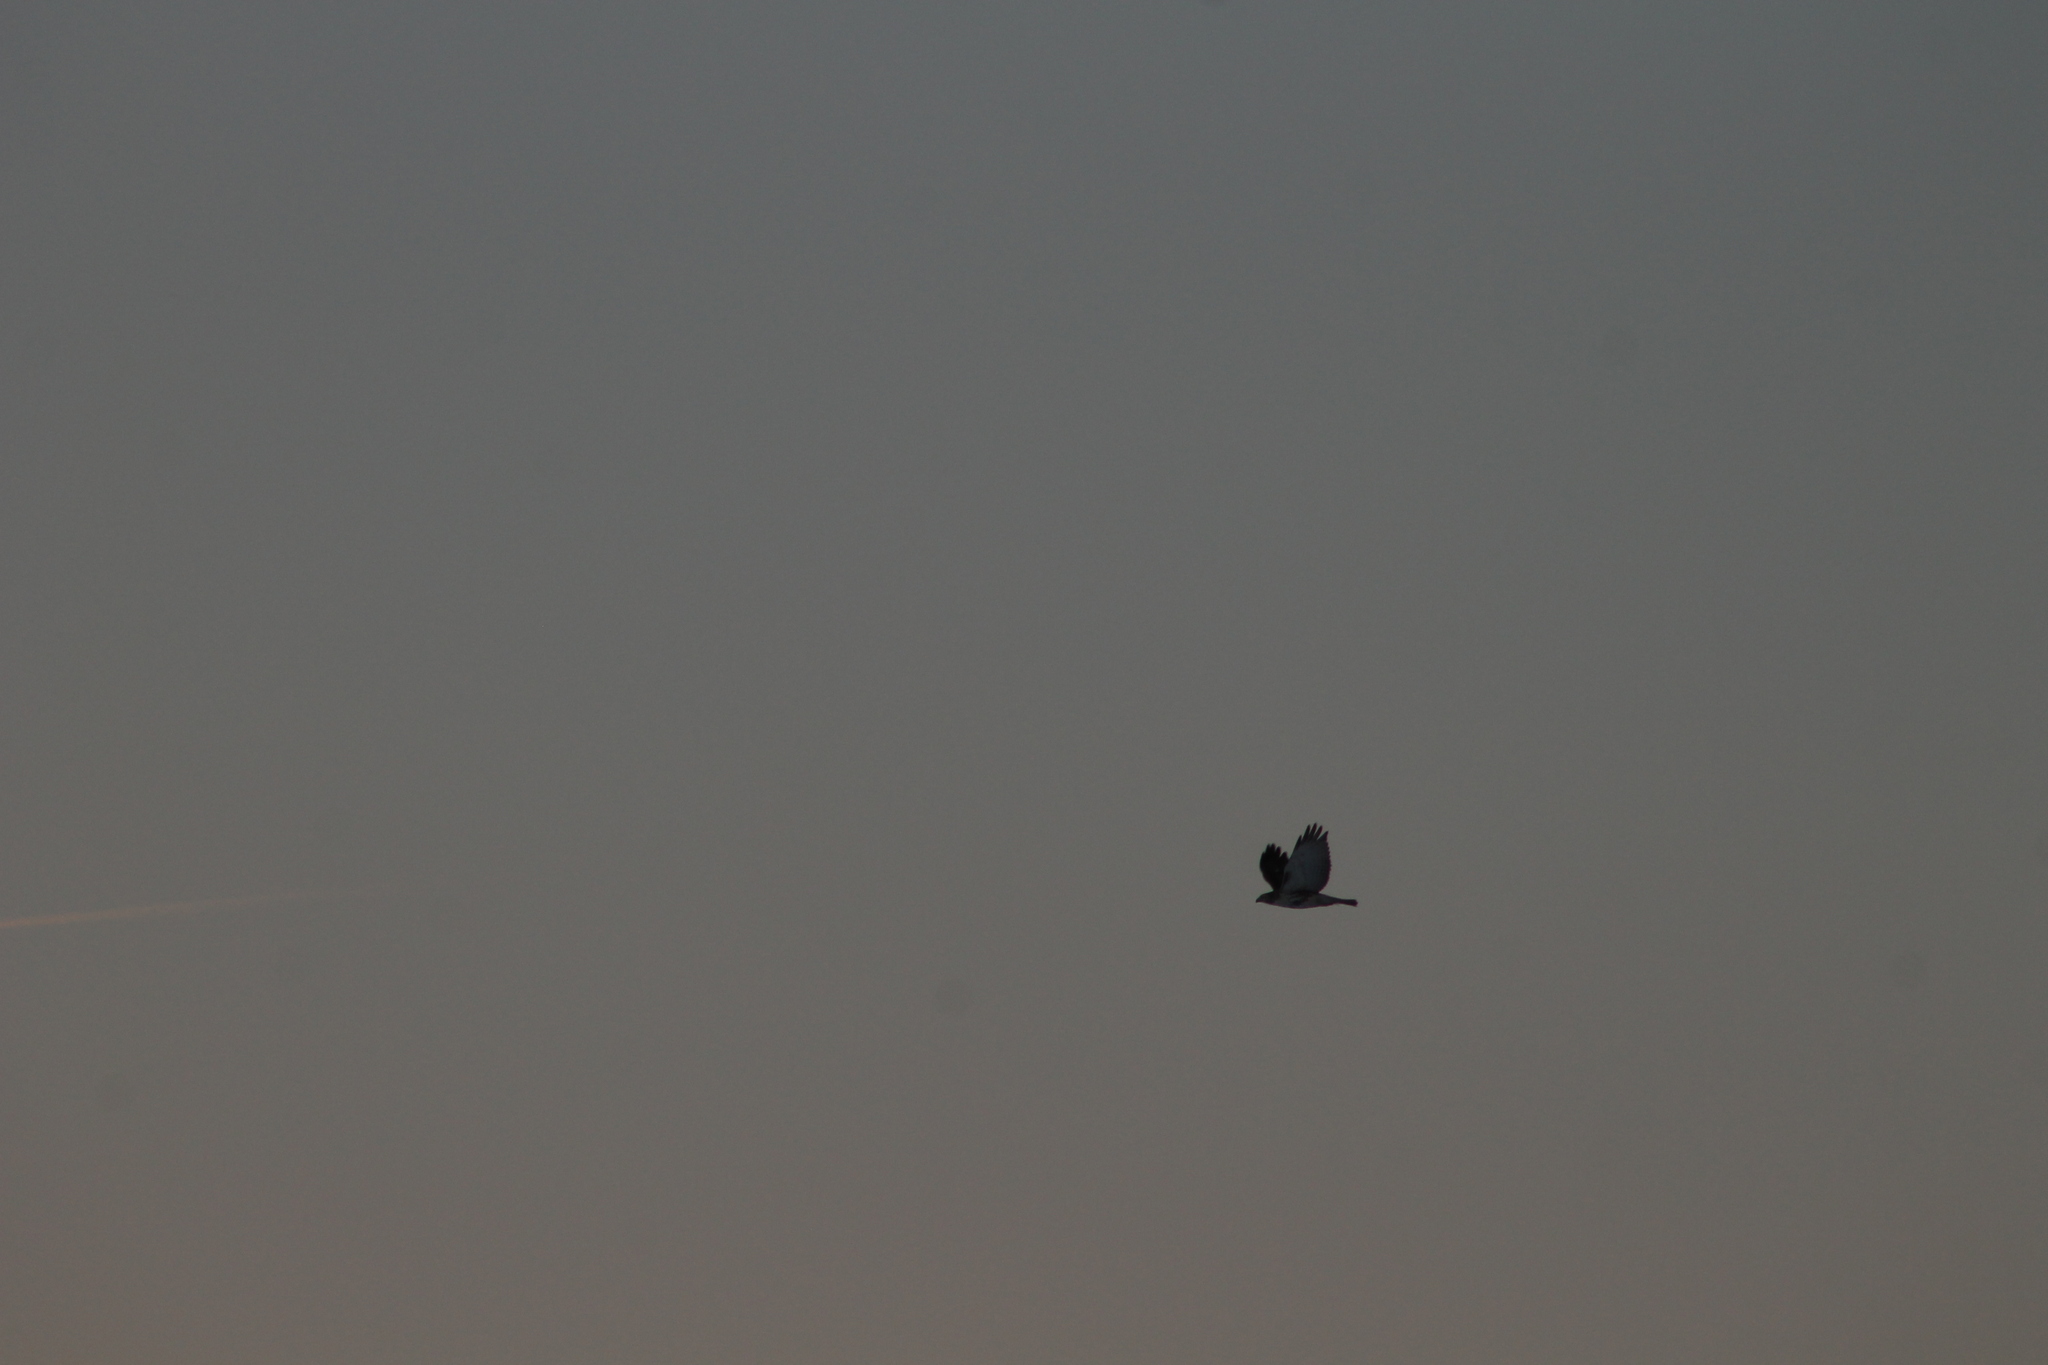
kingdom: Animalia
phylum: Chordata
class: Aves
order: Accipitriformes
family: Accipitridae
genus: Buteo
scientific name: Buteo jamaicensis
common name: Red-tailed hawk
